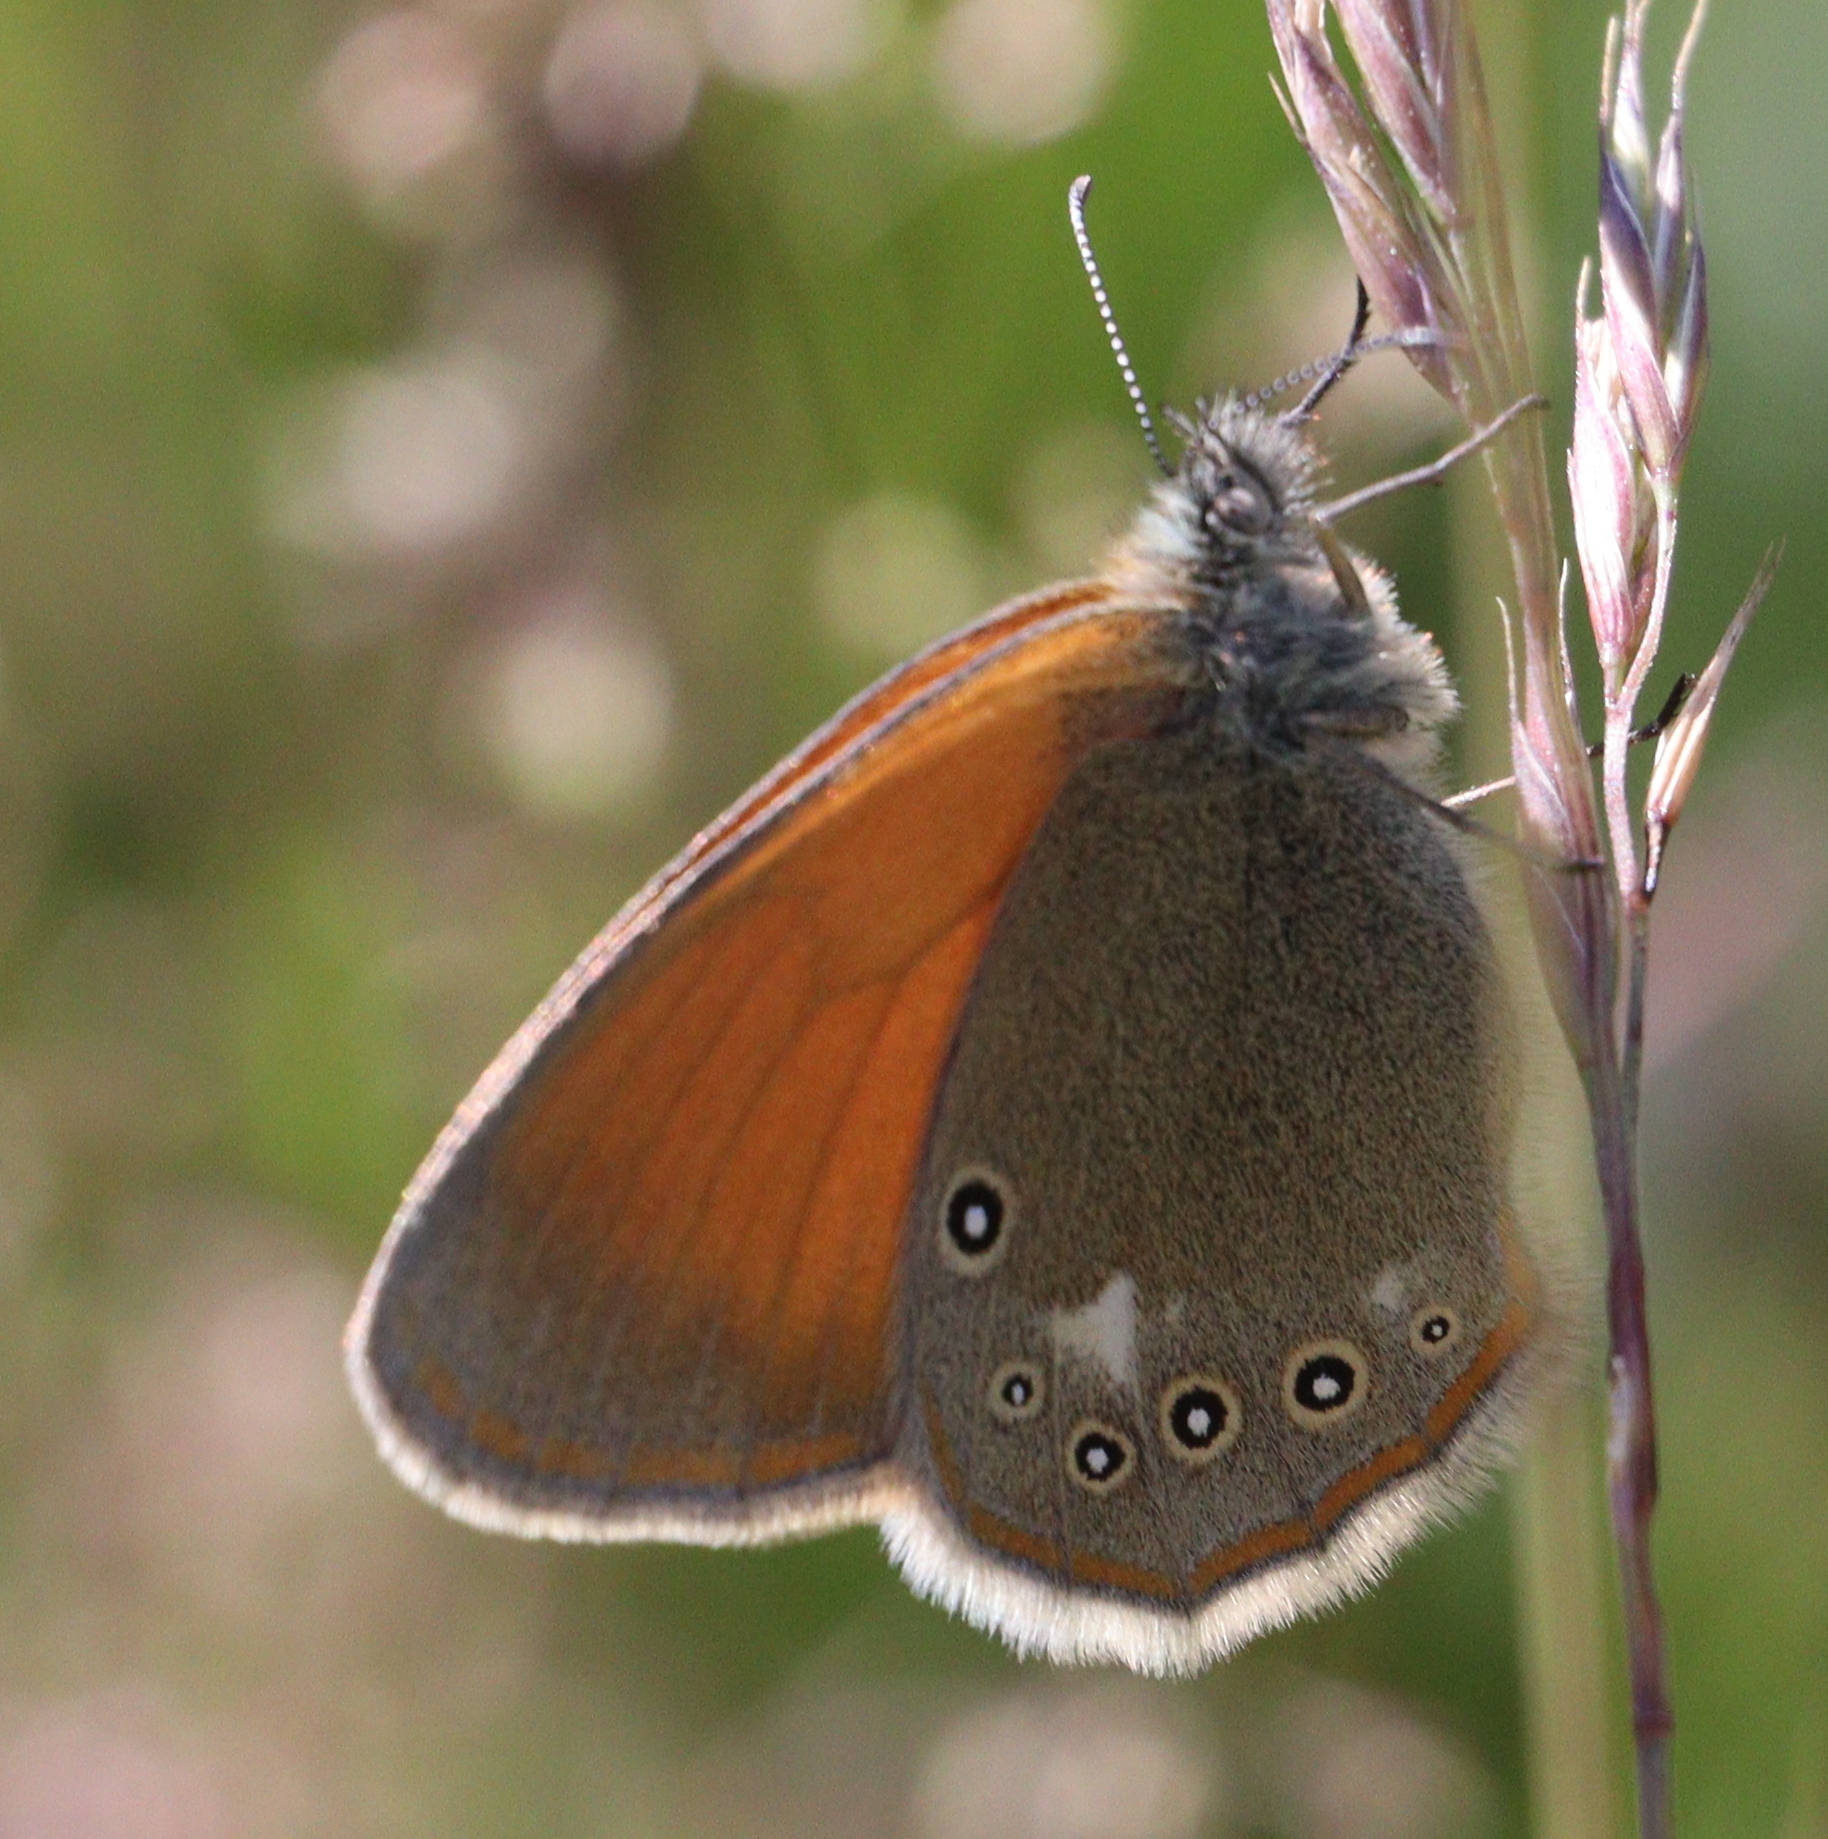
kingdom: Animalia
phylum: Arthropoda
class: Insecta
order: Lepidoptera
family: Nymphalidae
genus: Coenonympha
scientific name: Coenonympha iphis
